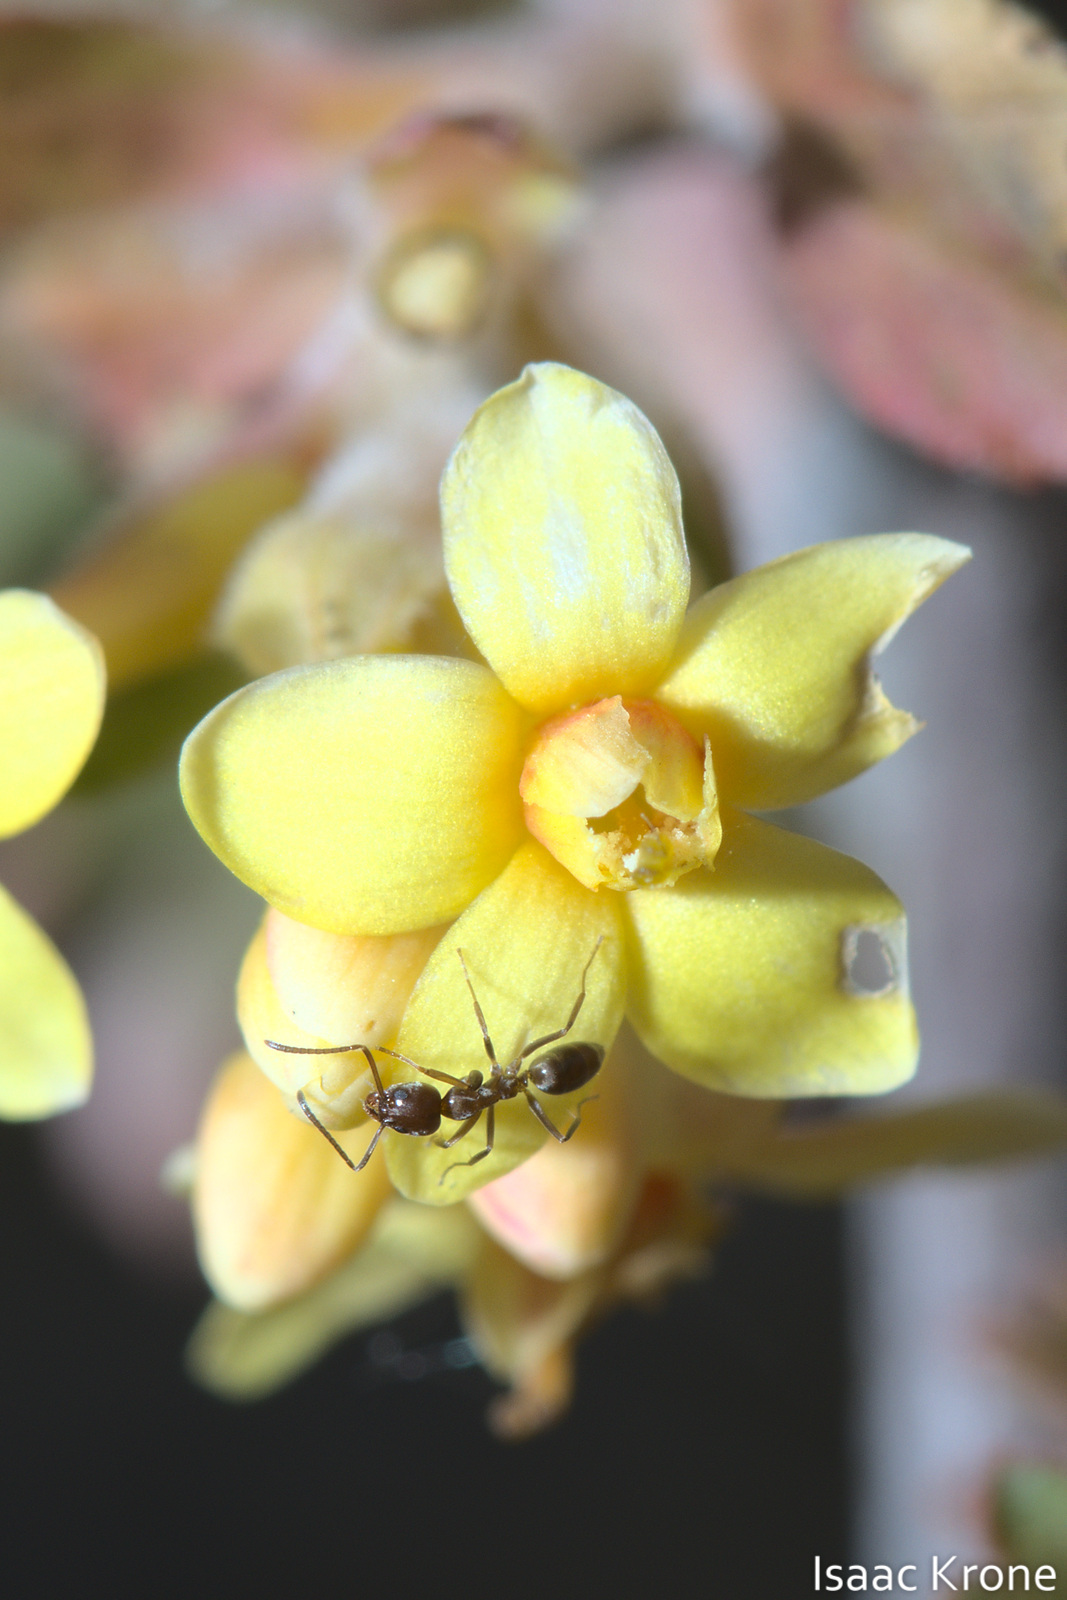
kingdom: Plantae
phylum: Tracheophyta
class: Magnoliopsida
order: Saxifragales
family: Grossulariaceae
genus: Ribes
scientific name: Ribes aureum
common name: Golden currant
